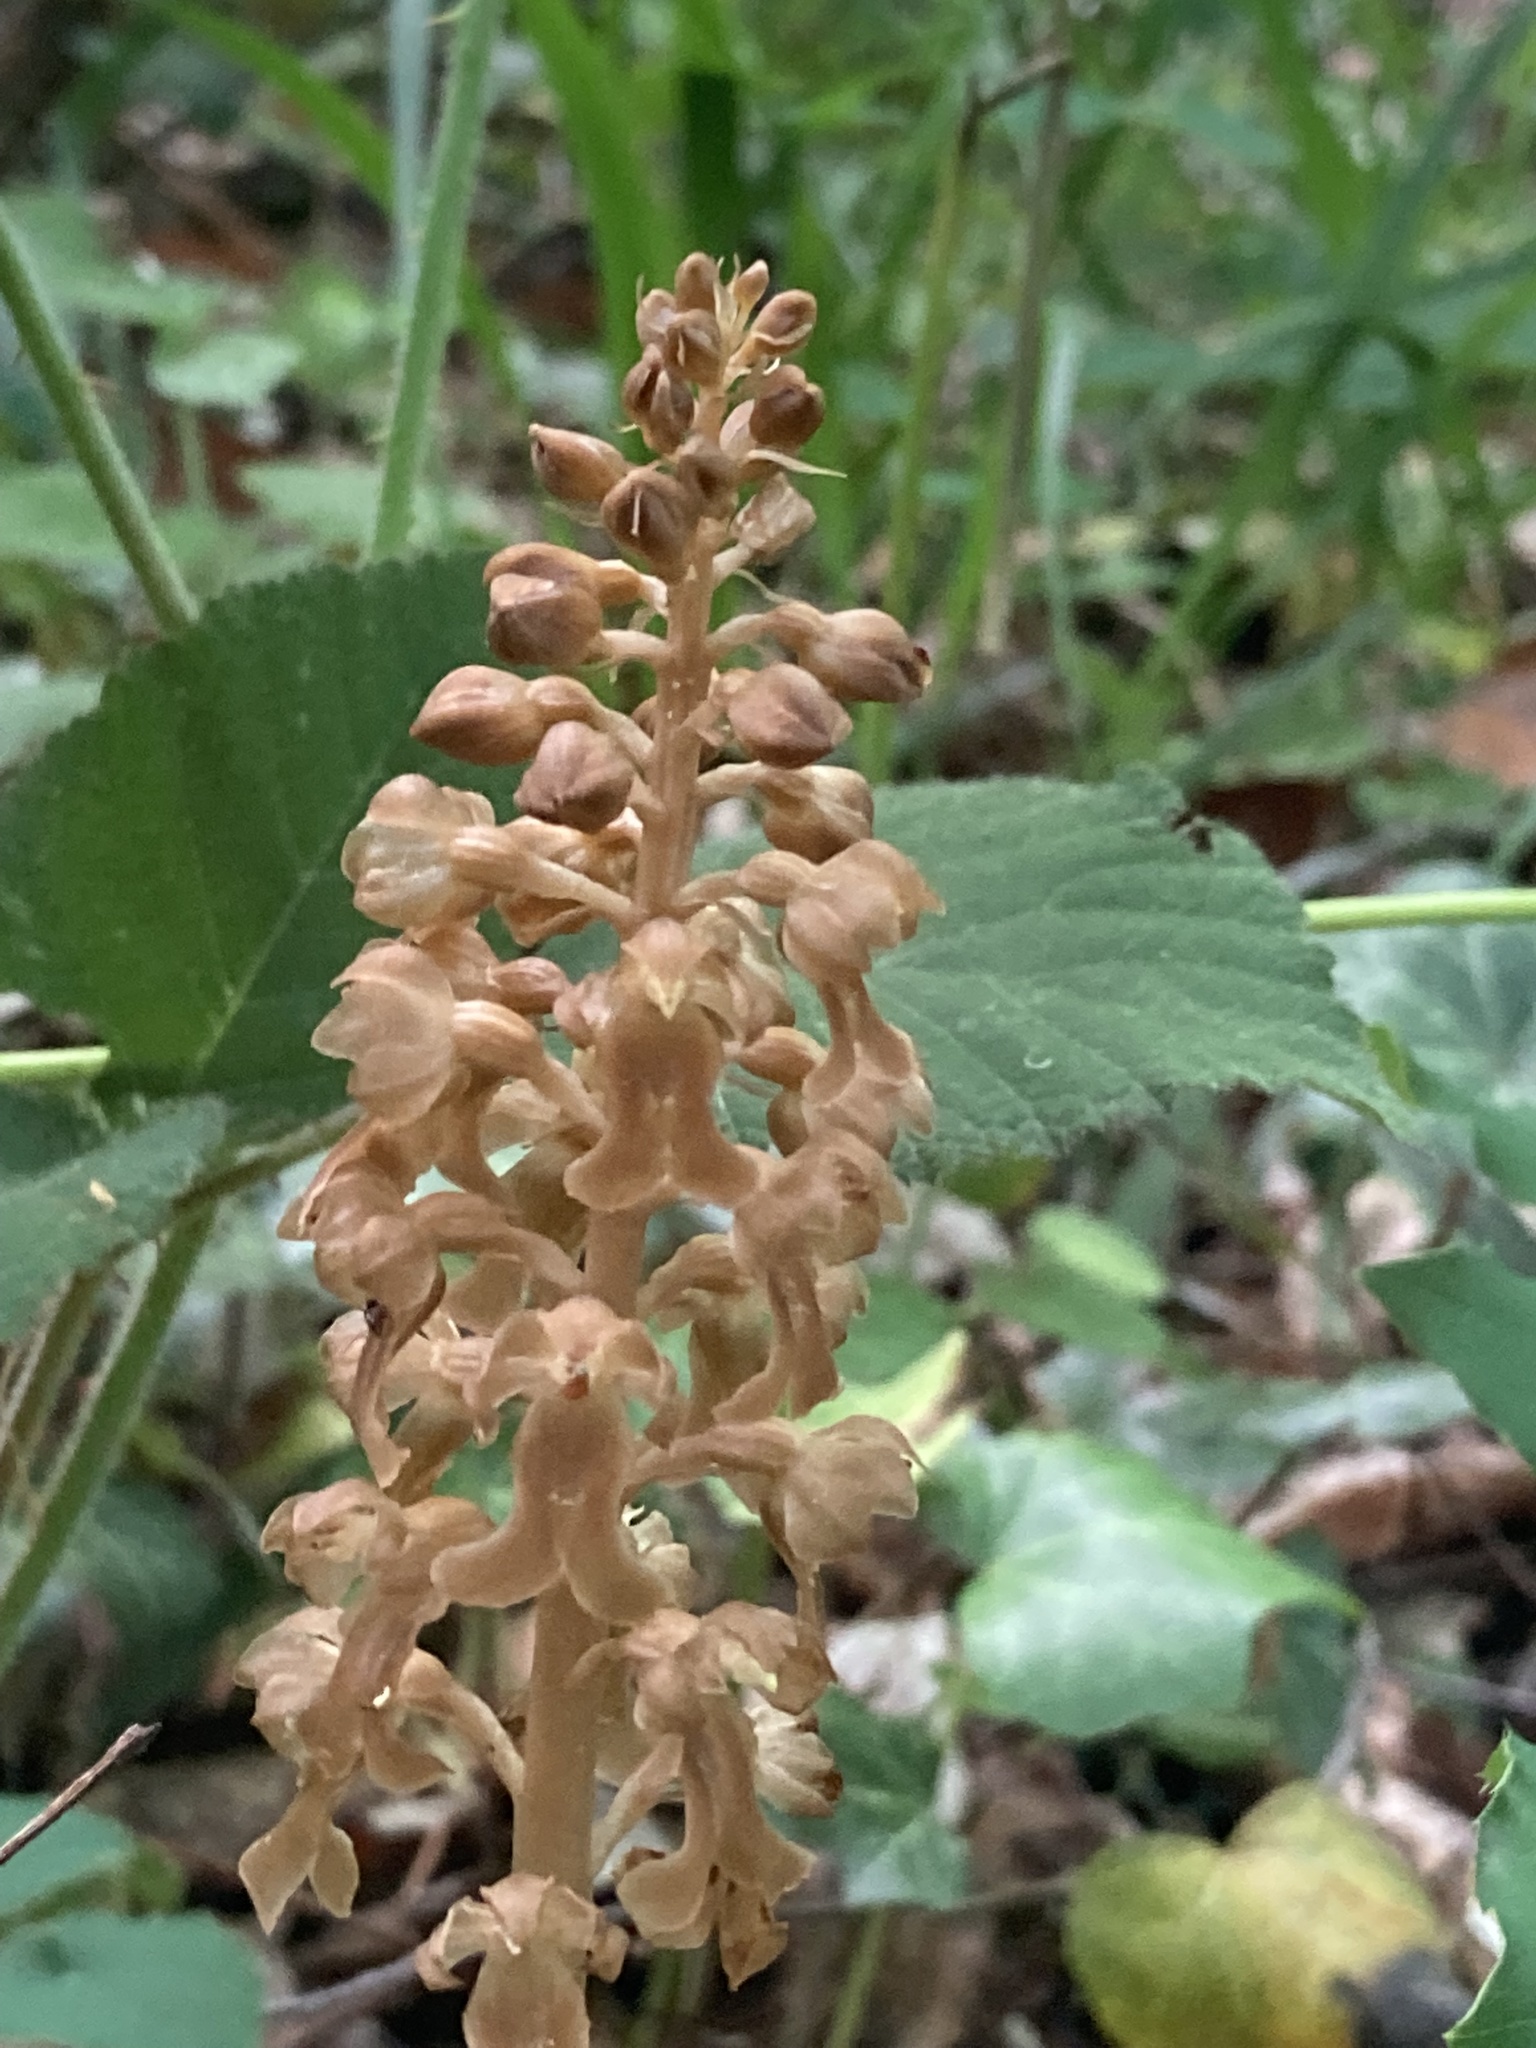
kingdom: Plantae
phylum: Tracheophyta
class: Liliopsida
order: Asparagales
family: Orchidaceae
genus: Neottia
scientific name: Neottia nidus-avis
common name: Bird's-nest orchid
